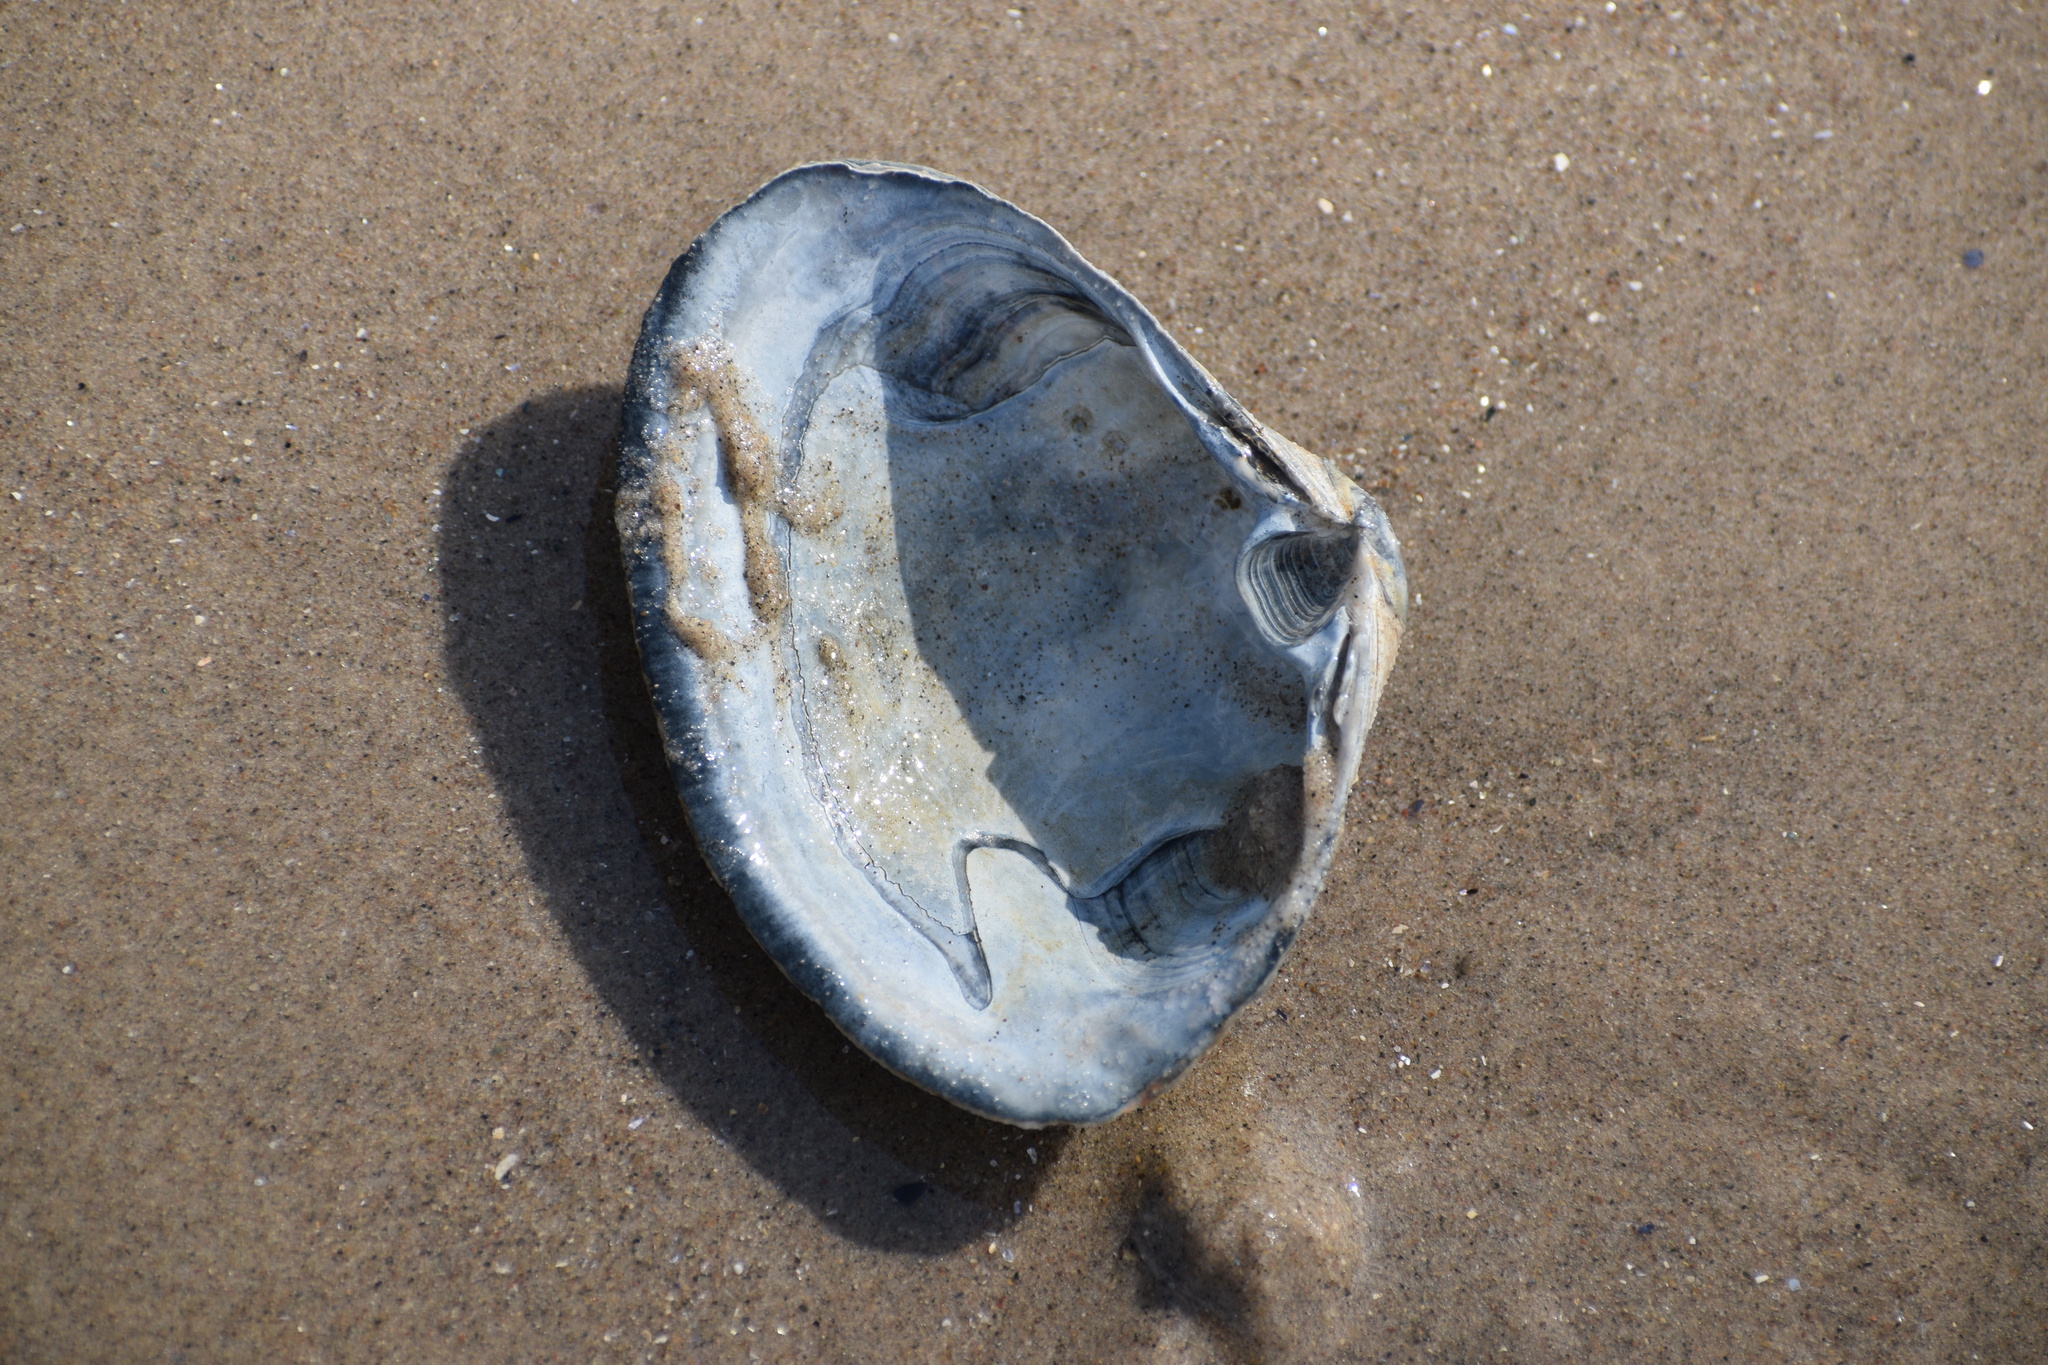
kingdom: Animalia
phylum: Mollusca
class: Bivalvia
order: Venerida
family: Mactridae
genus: Spisula
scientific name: Spisula solidissima
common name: Atlantic surf clam
